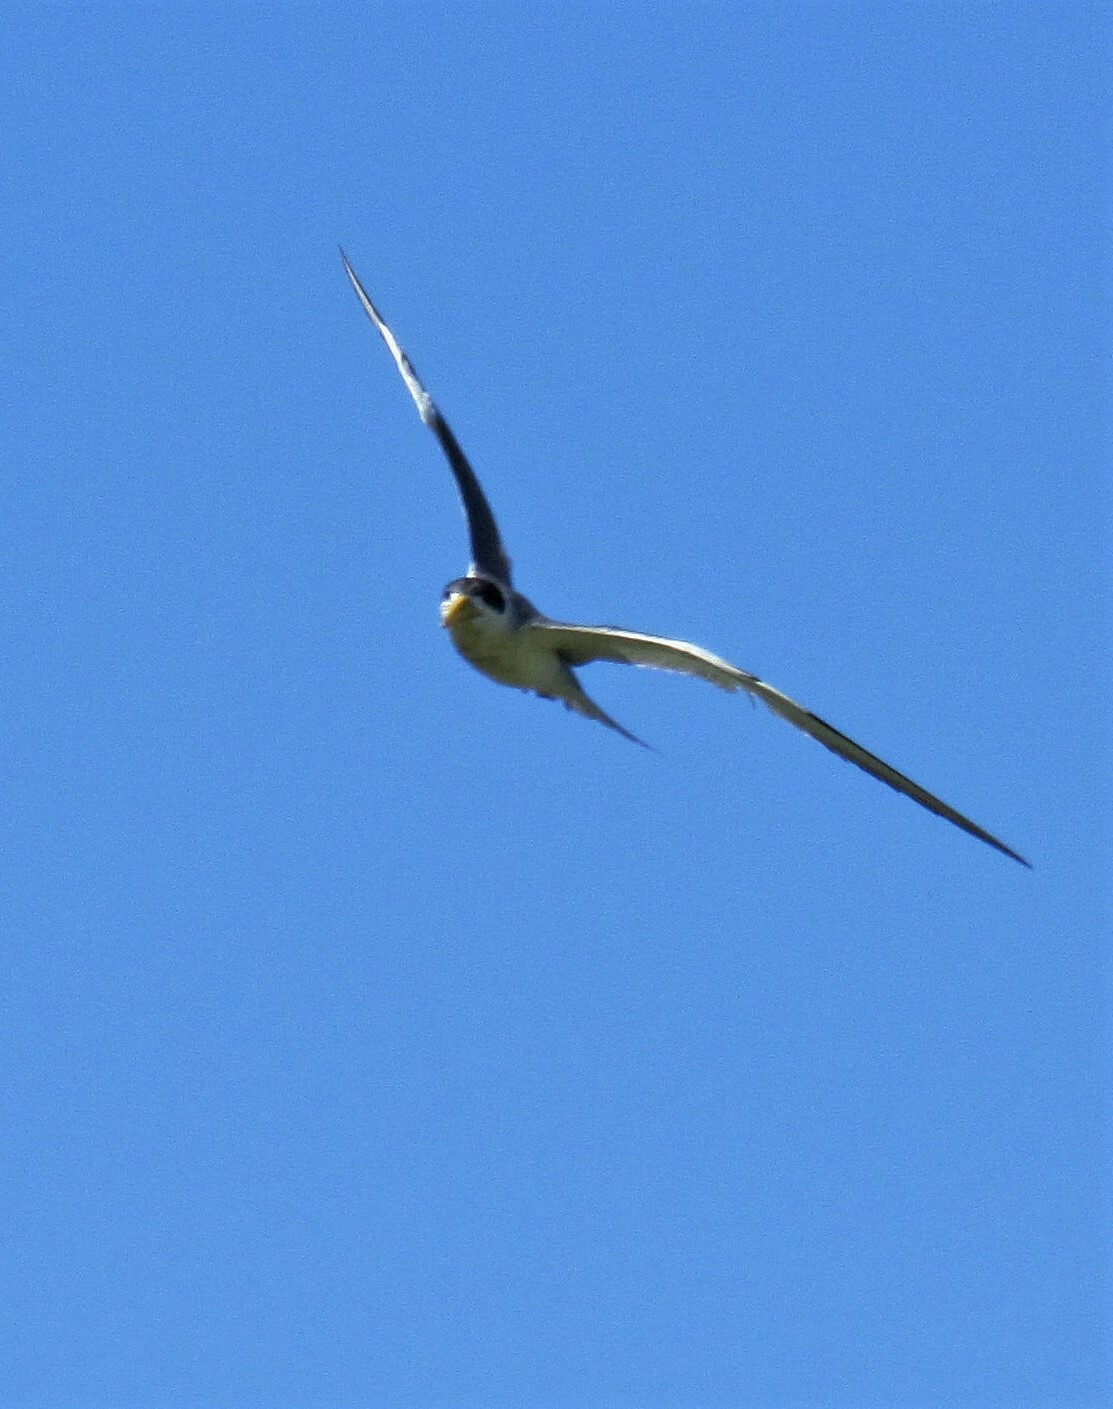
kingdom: Animalia
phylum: Chordata
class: Aves
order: Charadriiformes
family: Laridae
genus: Phaetusa
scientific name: Phaetusa simplex
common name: Large-billed tern
